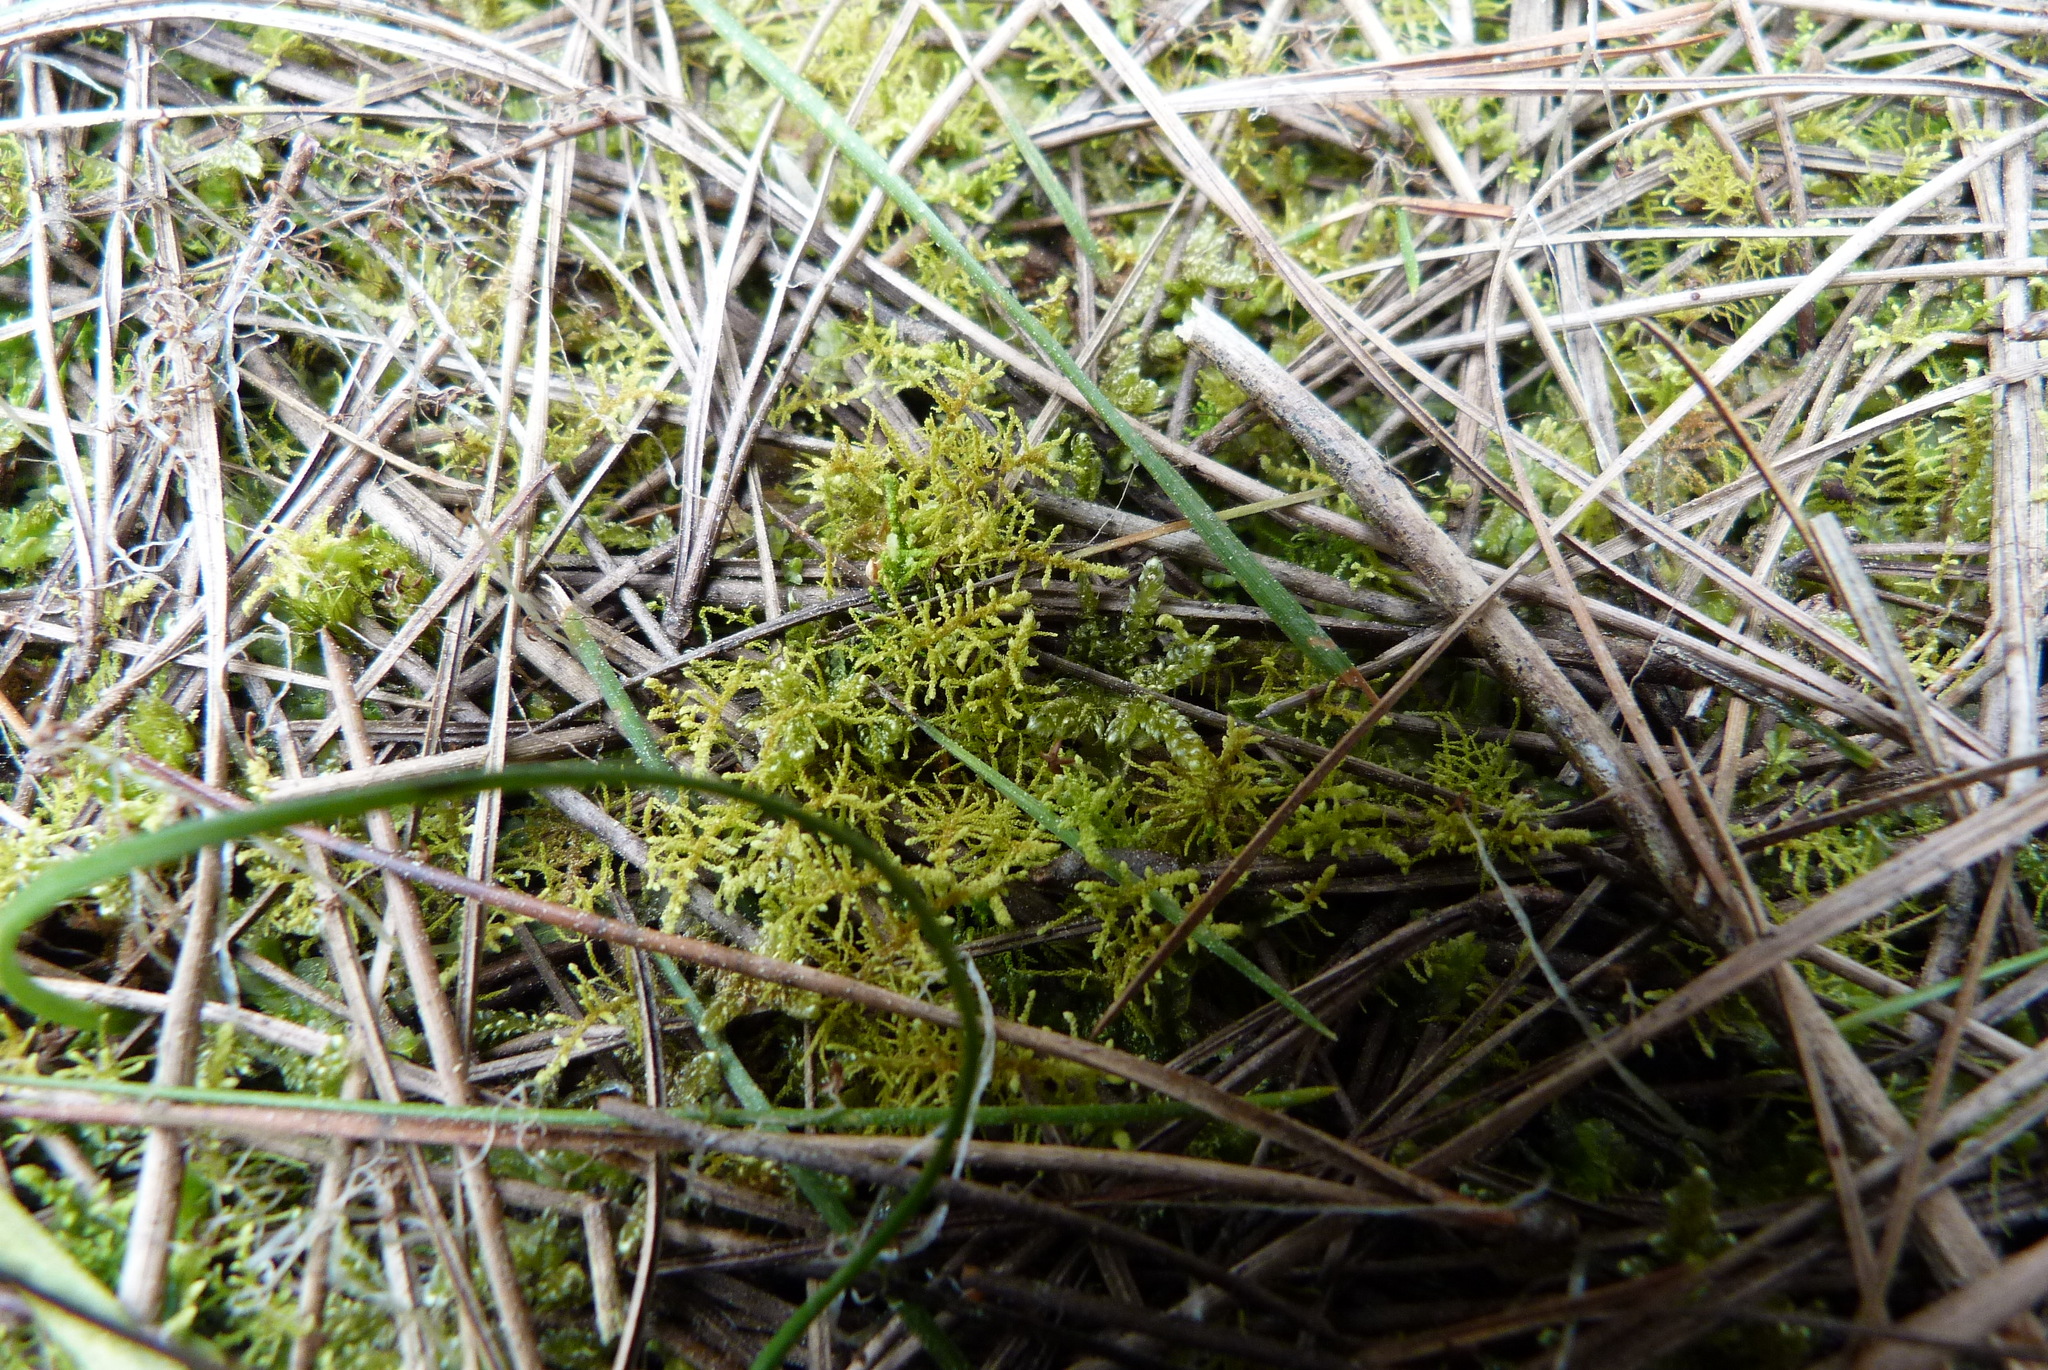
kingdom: Plantae
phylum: Bryophyta
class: Bryopsida
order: Hypnales
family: Thuidiaceae
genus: Thuidiopsis
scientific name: Thuidiopsis furfurosa
